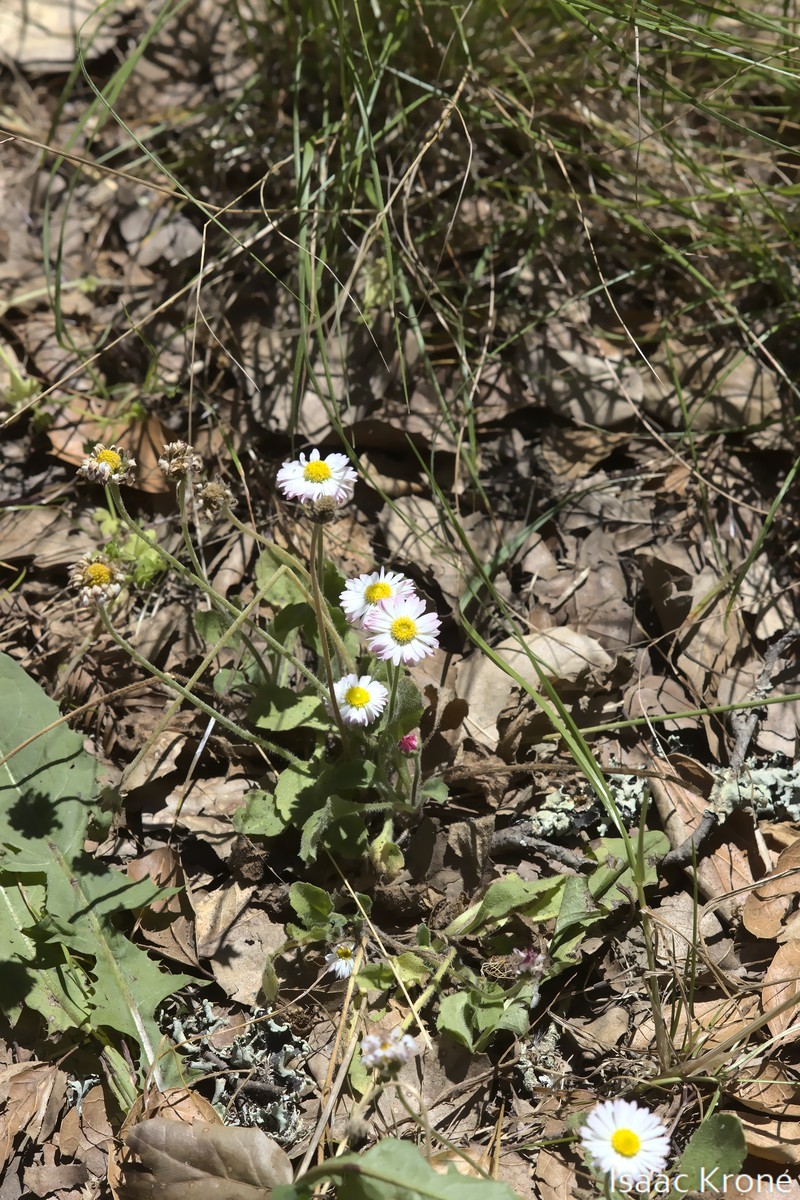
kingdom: Plantae
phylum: Tracheophyta
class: Magnoliopsida
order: Asterales
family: Asteraceae
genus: Bellis
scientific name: Bellis perennis
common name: Lawndaisy
